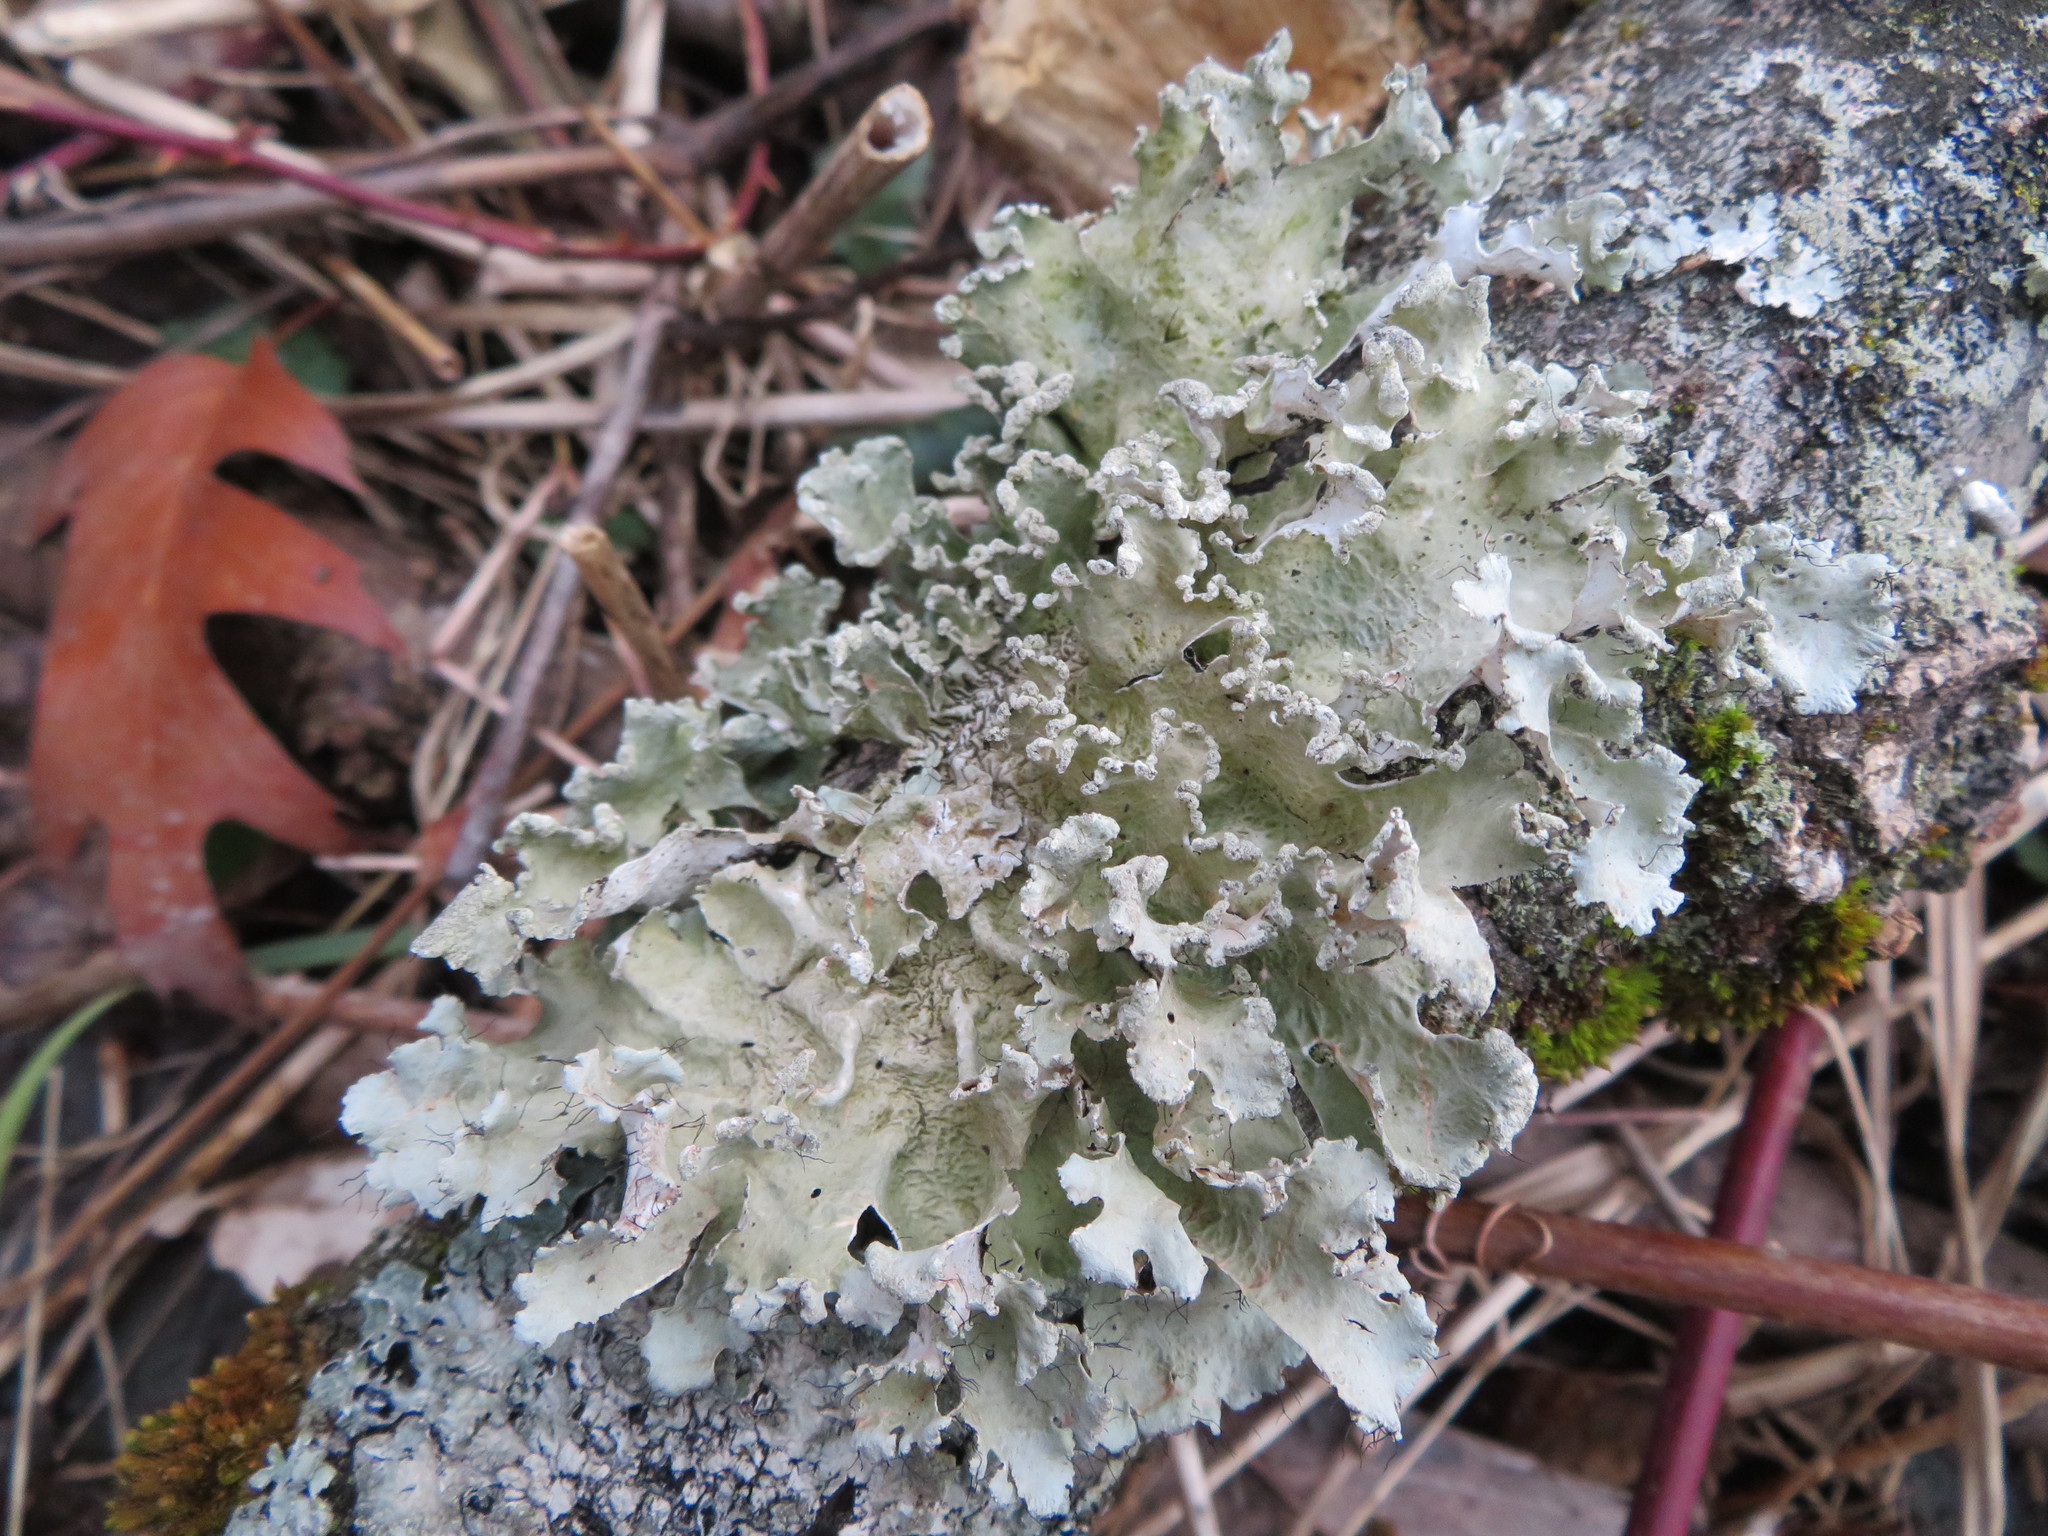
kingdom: Fungi
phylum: Ascomycota
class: Lecanoromycetes
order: Lecanorales
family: Parmeliaceae
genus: Parmotrema
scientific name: Parmotrema hypotropum
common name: Powdered ruffle lichen
